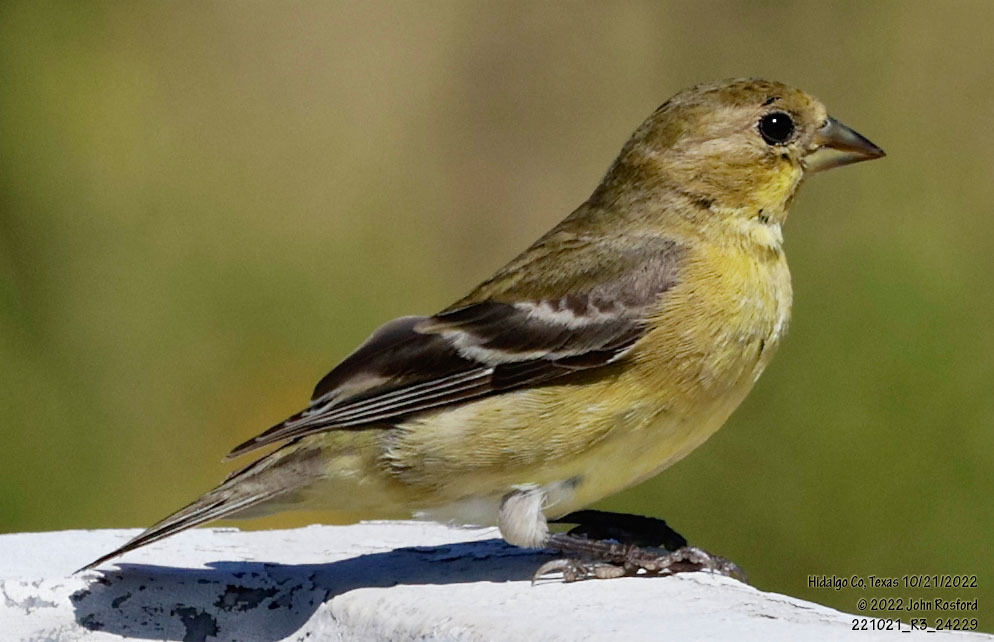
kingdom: Animalia
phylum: Chordata
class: Aves
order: Passeriformes
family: Fringillidae
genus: Spinus
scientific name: Spinus psaltria
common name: Lesser goldfinch
